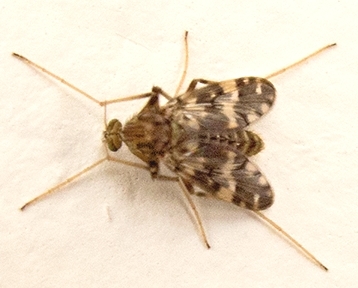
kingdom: Animalia
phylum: Arthropoda
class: Insecta
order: Diptera
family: Chironomidae
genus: Psectrotanypus
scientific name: Psectrotanypus varius
